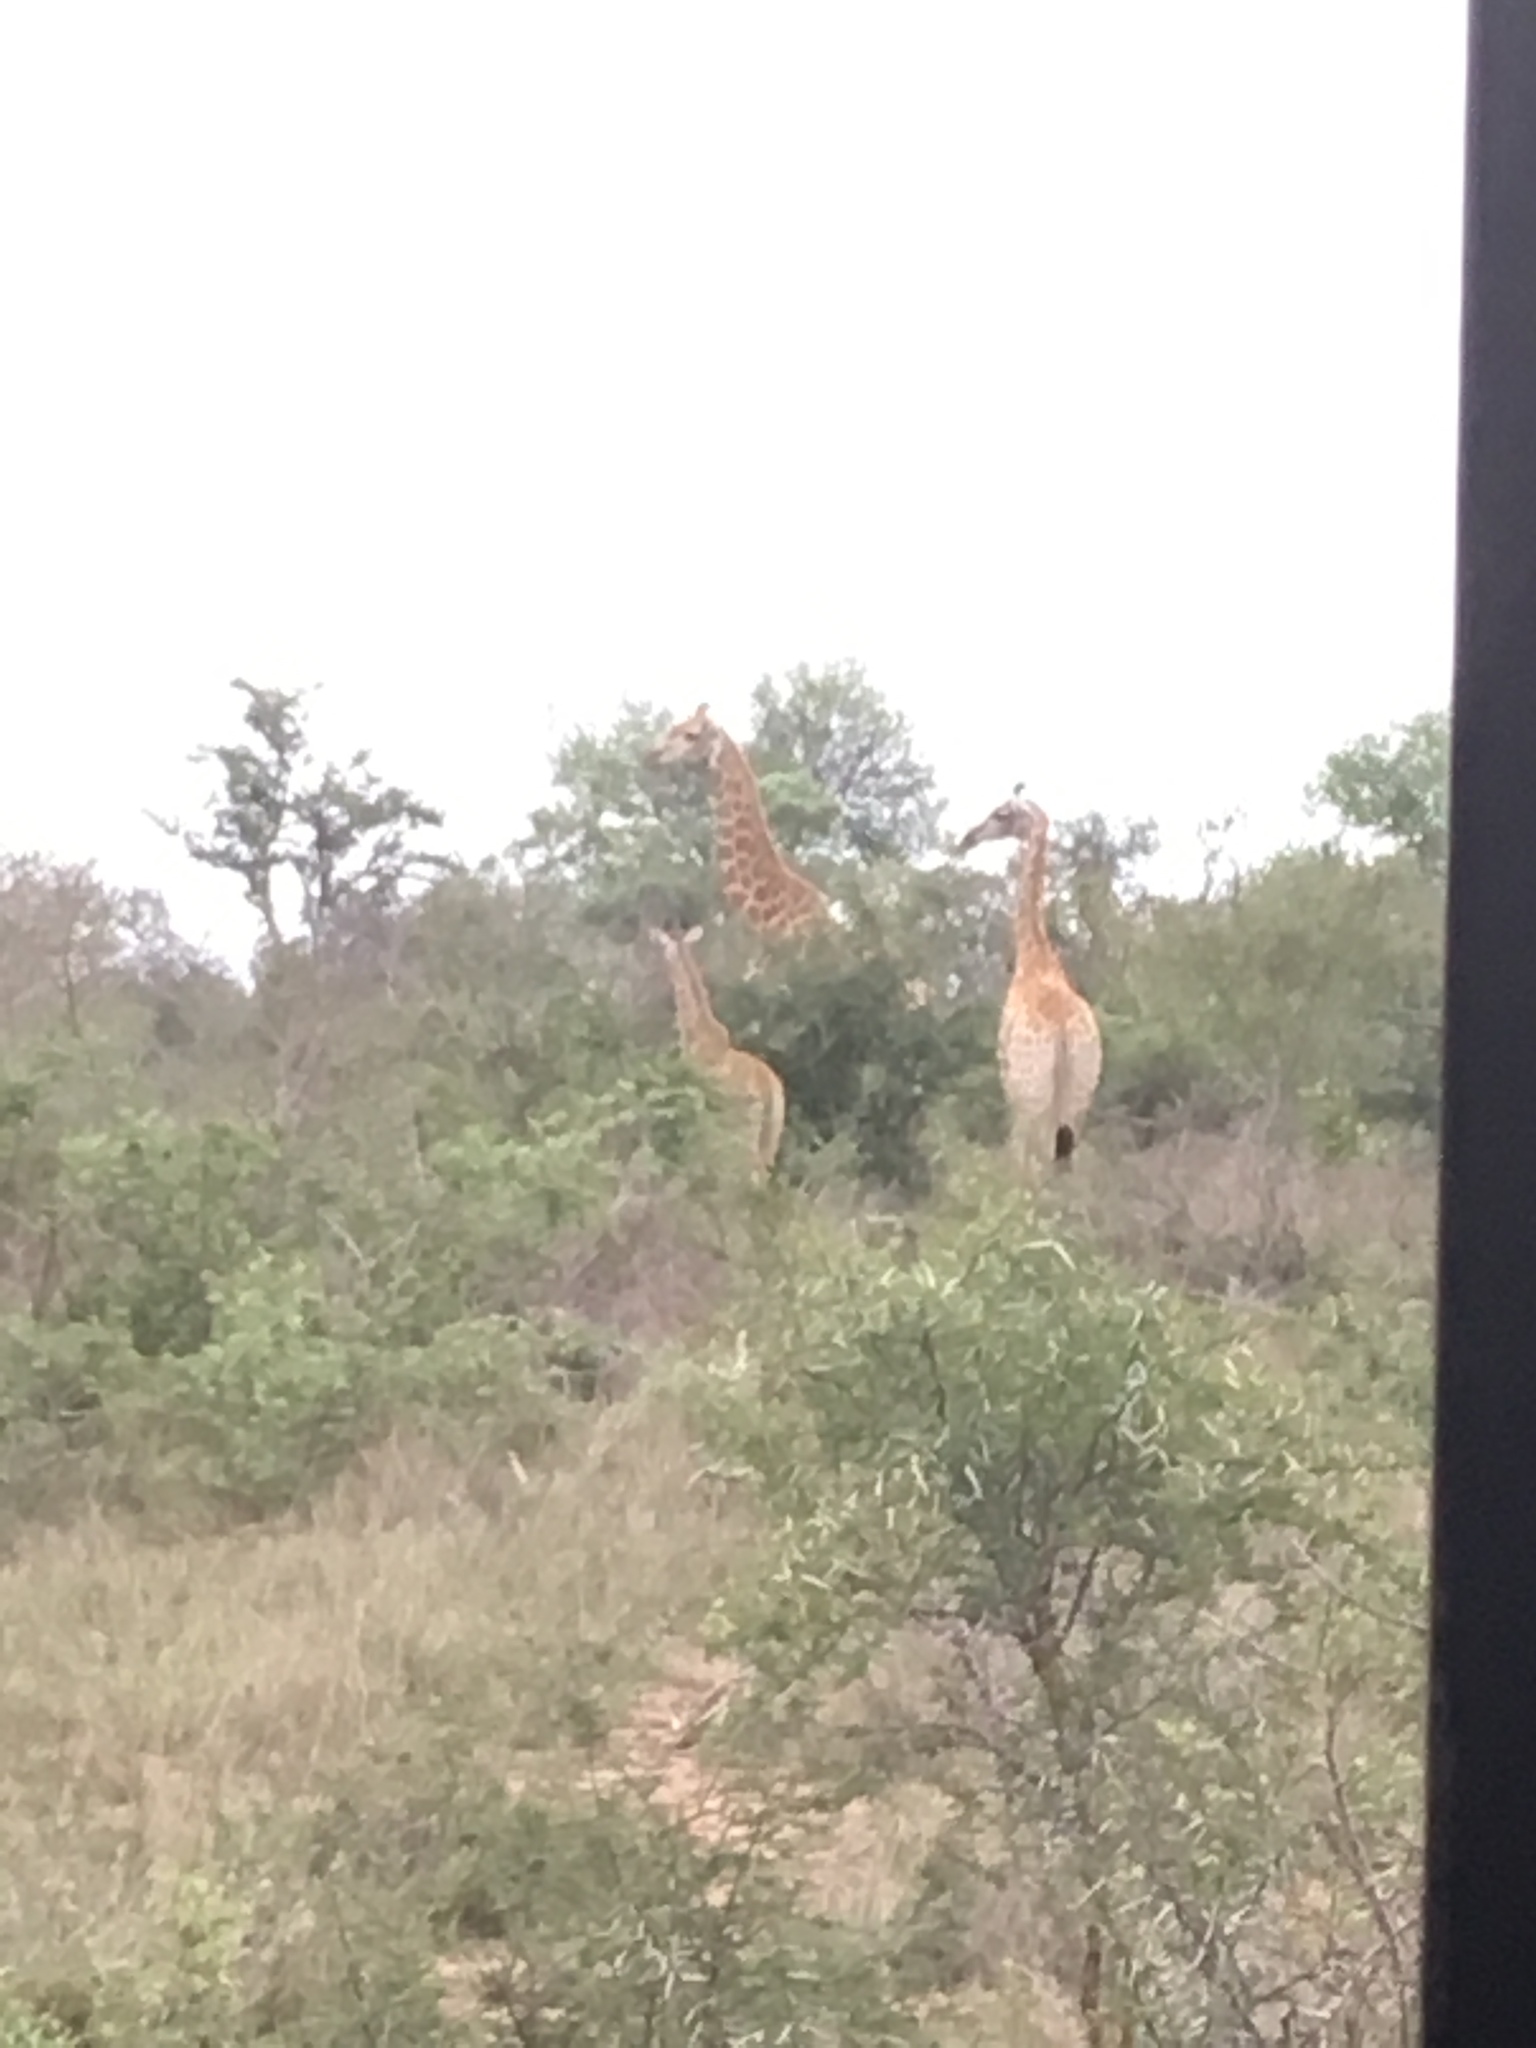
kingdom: Animalia
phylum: Chordata
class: Mammalia
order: Artiodactyla
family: Giraffidae
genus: Giraffa
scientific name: Giraffa giraffa
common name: Southern giraffe
